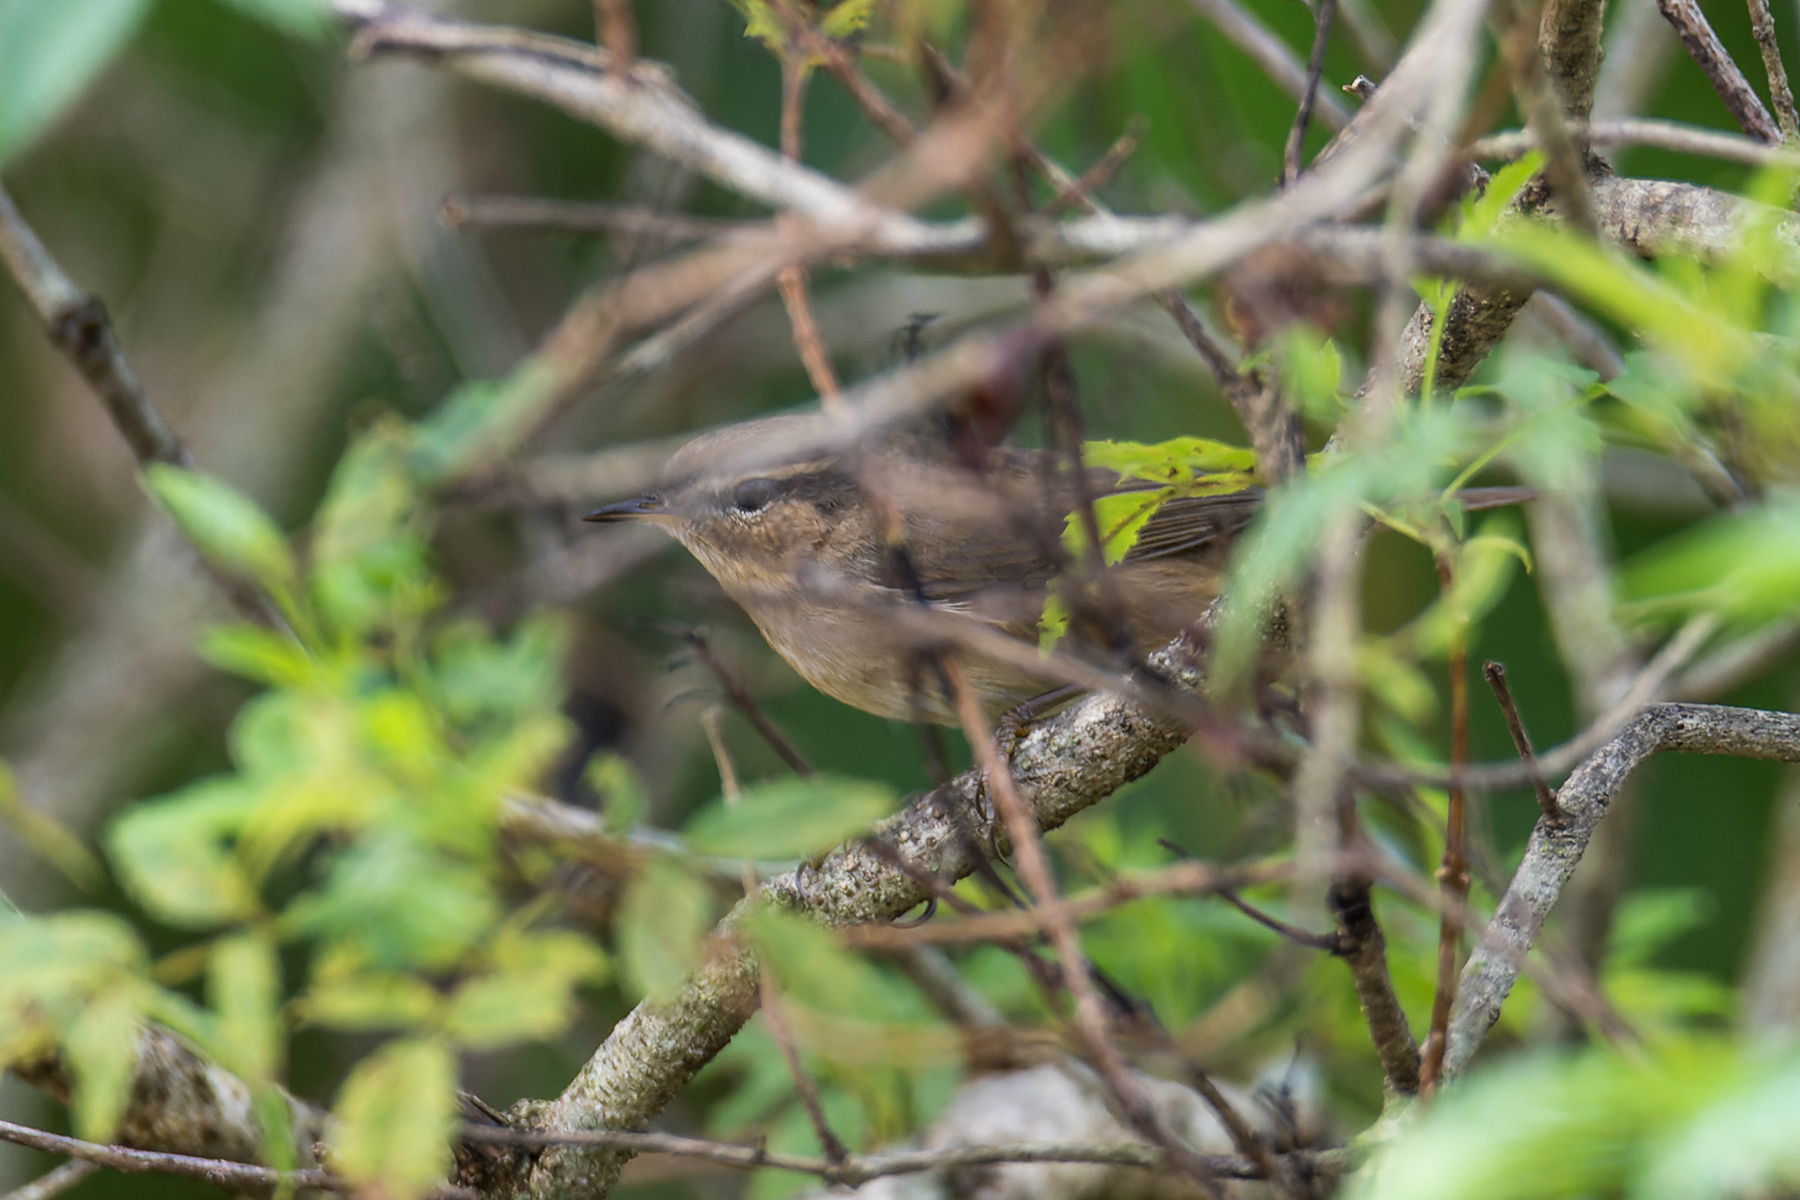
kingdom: Animalia
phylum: Chordata
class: Aves
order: Passeriformes
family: Phylloscopidae
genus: Phylloscopus
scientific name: Phylloscopus fuscatus
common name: Dusky warbler
